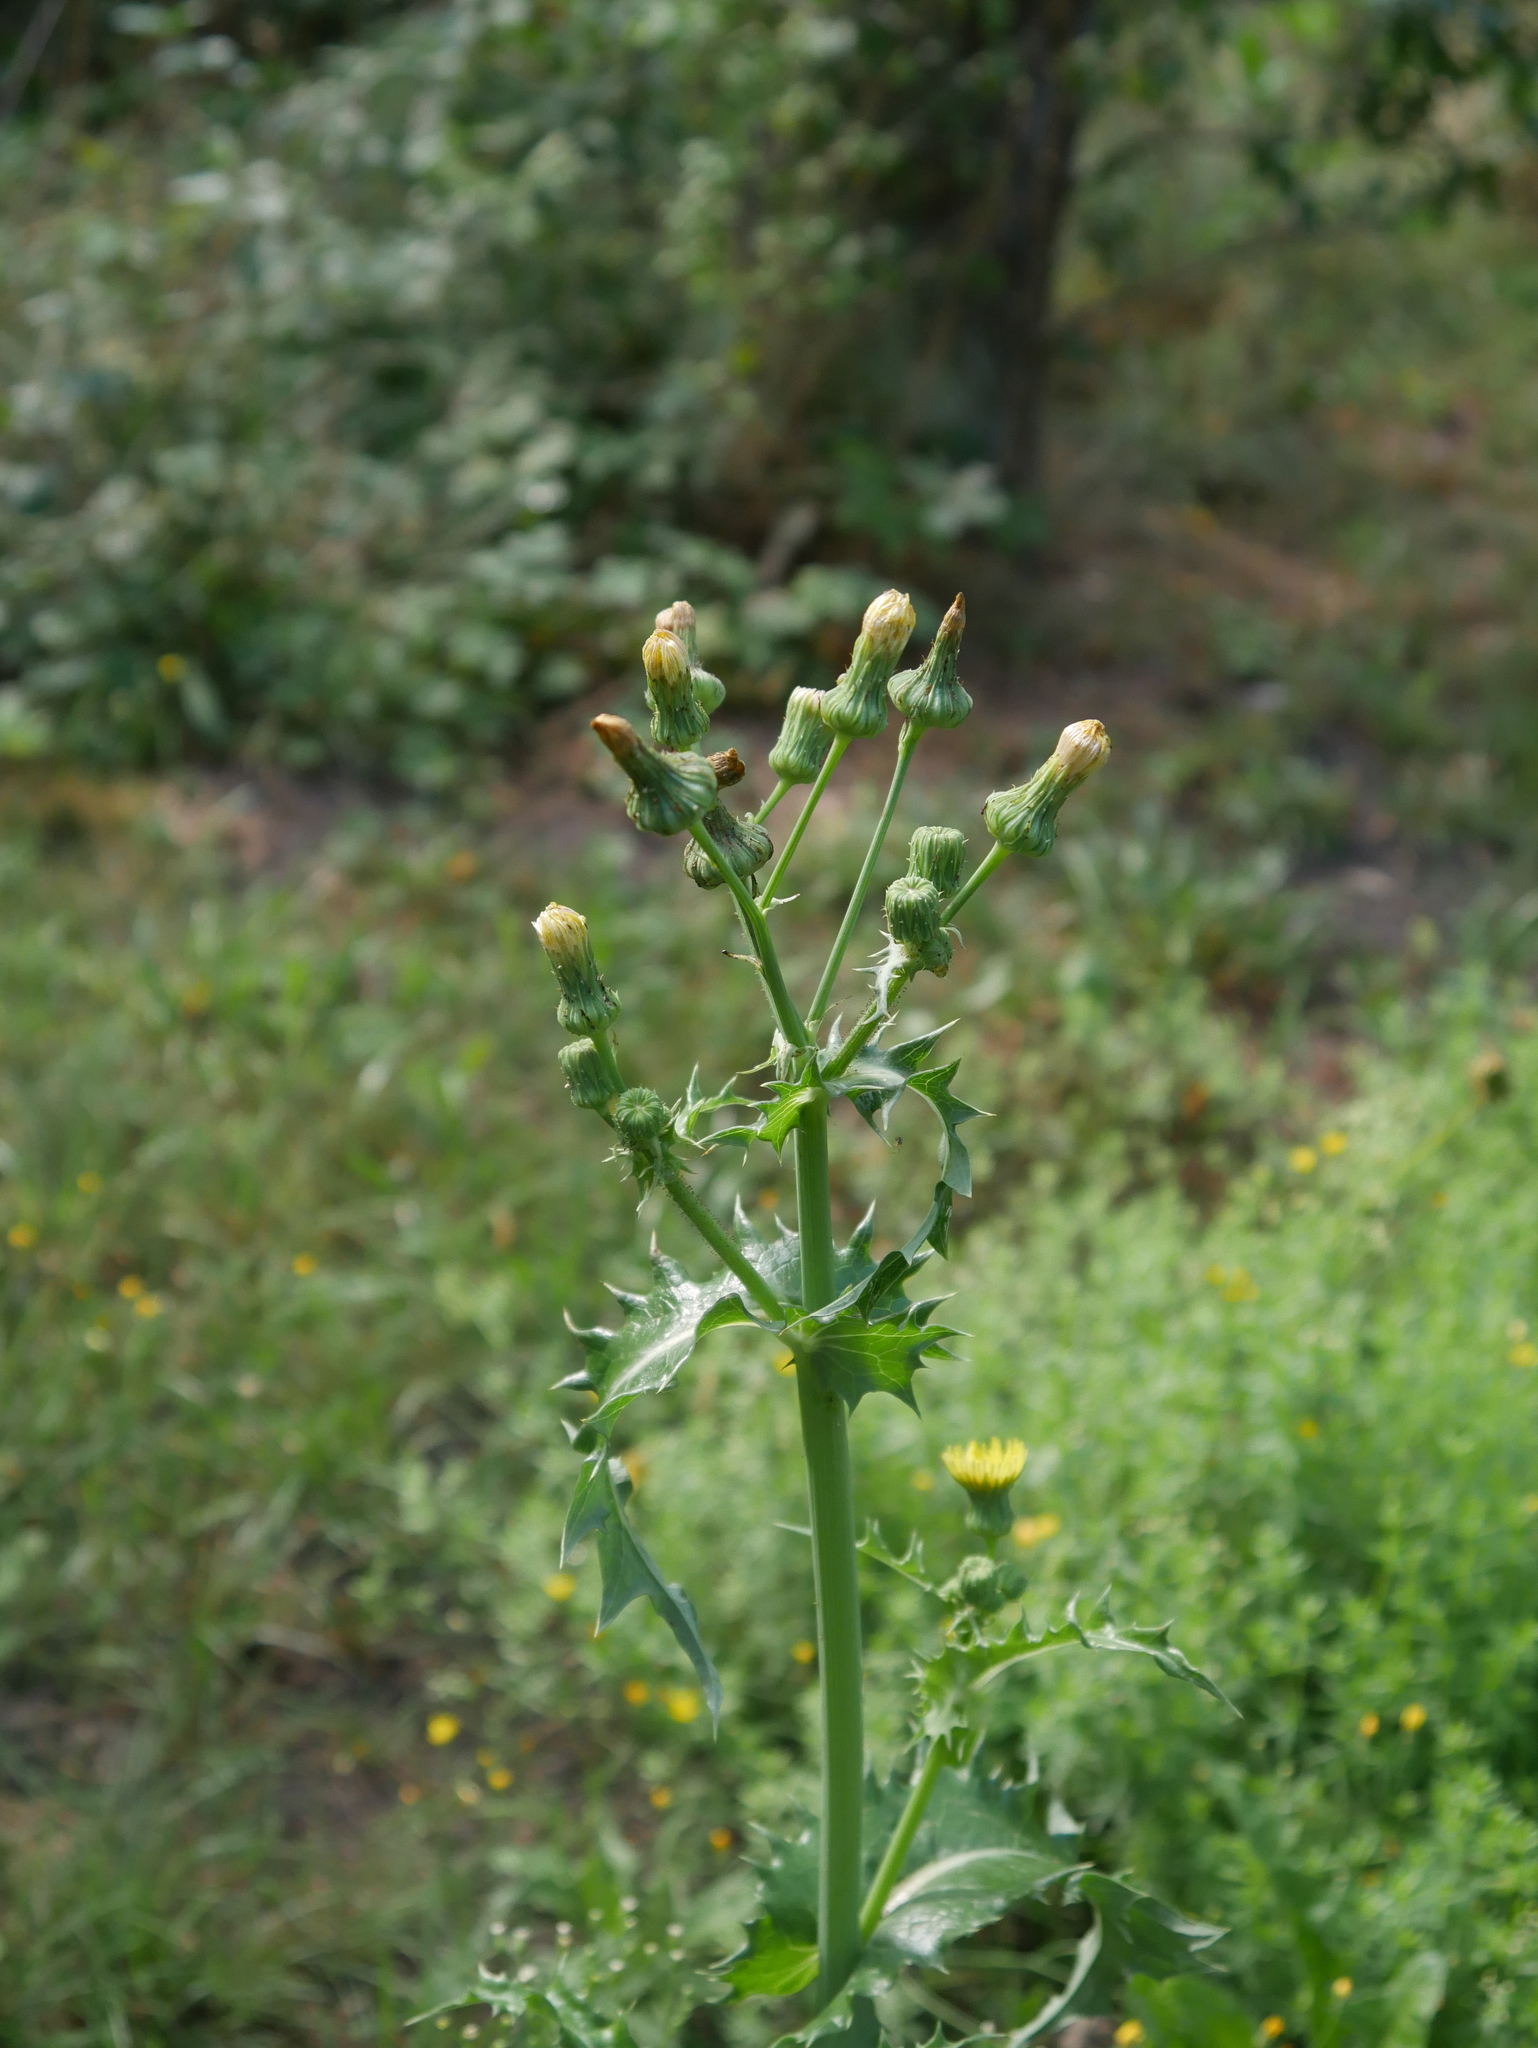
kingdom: Plantae
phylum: Tracheophyta
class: Magnoliopsida
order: Asterales
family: Asteraceae
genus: Sonchus
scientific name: Sonchus oleraceus
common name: Common sowthistle
